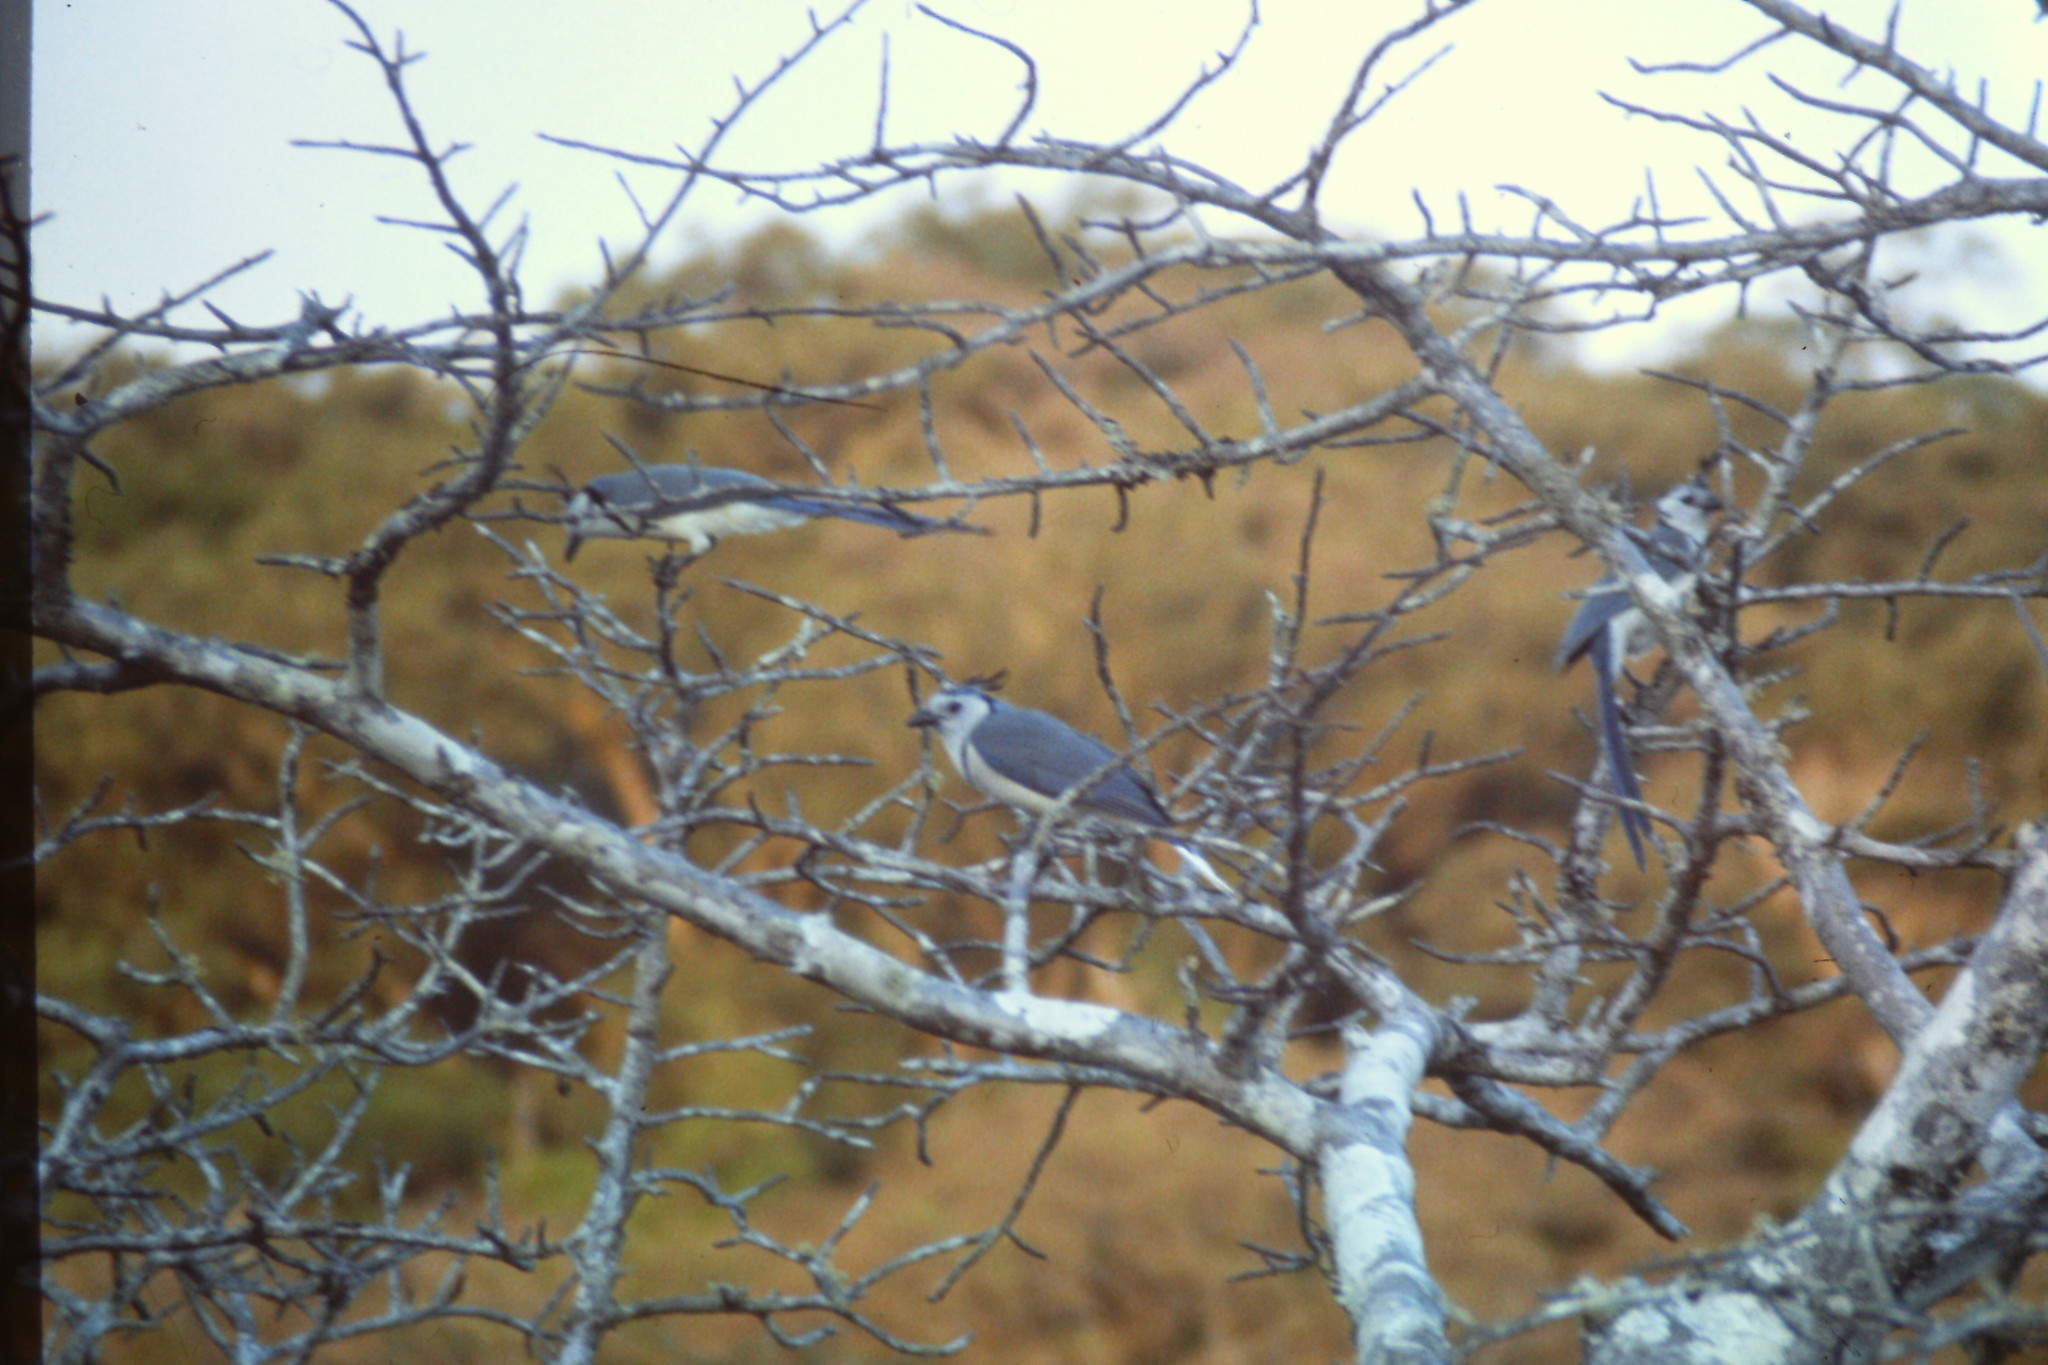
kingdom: Animalia
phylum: Chordata
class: Aves
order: Passeriformes
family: Corvidae
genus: Calocitta
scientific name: Calocitta formosa
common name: White-throated magpie-jay
